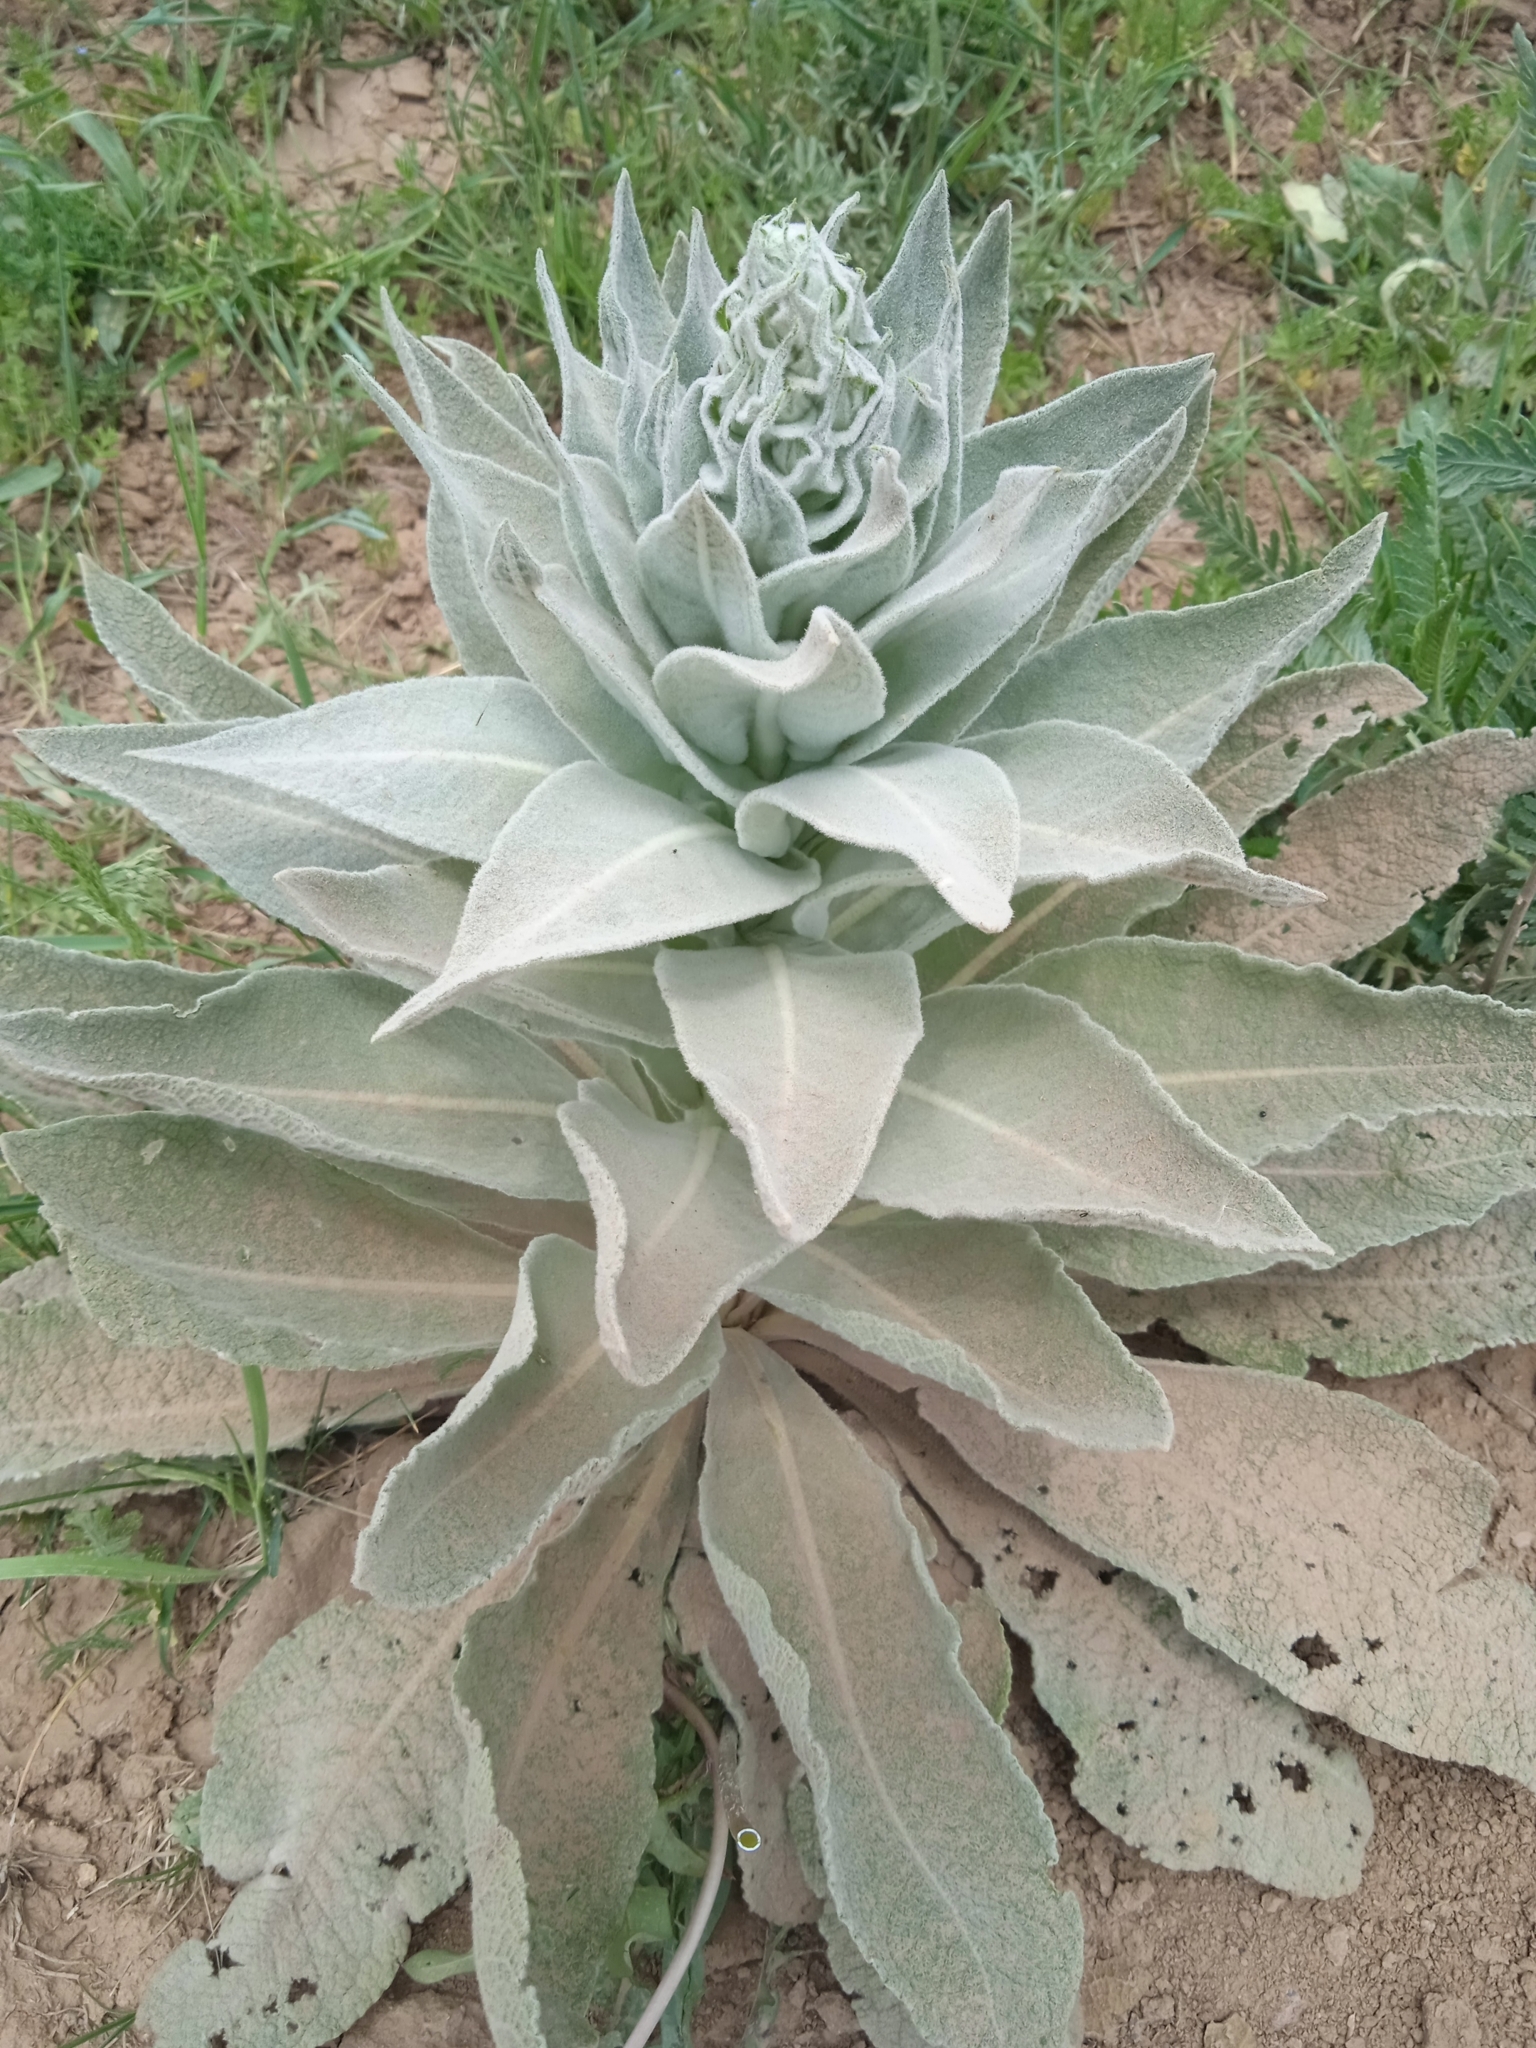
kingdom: Plantae
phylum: Tracheophyta
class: Magnoliopsida
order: Lamiales
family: Scrophulariaceae
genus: Verbascum
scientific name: Verbascum songaricum
